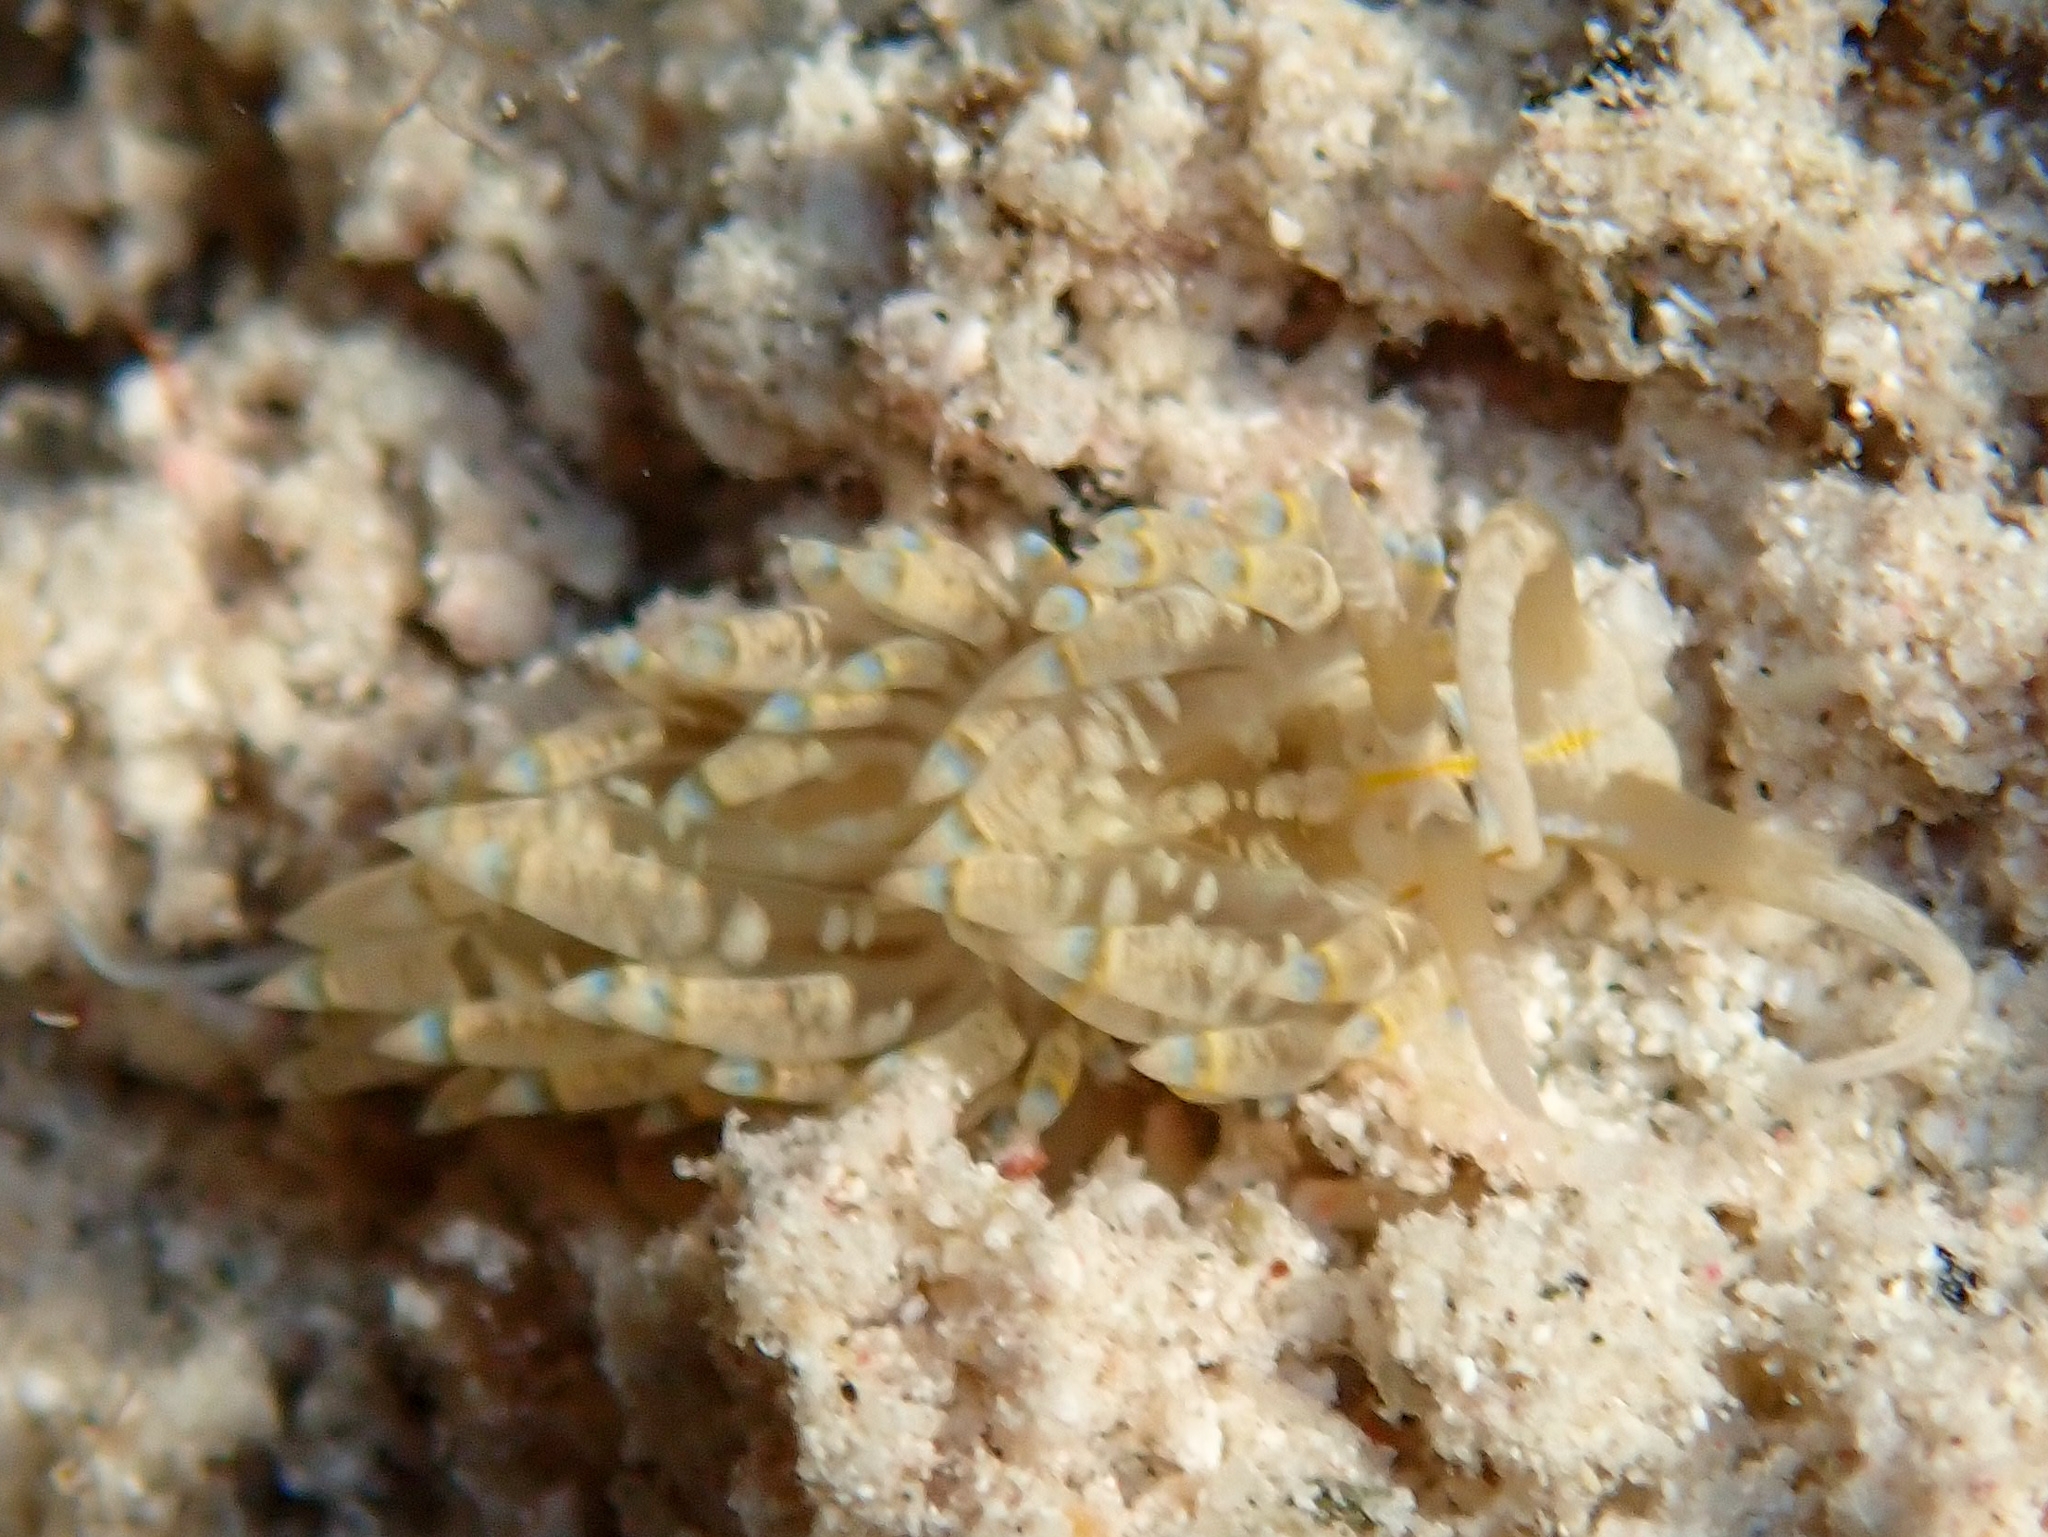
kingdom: Animalia
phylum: Mollusca
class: Gastropoda
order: Nudibranchia
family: Myrrhinidae
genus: Dondice
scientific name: Dondice occidentalis
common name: Fringe-back nudibranch
